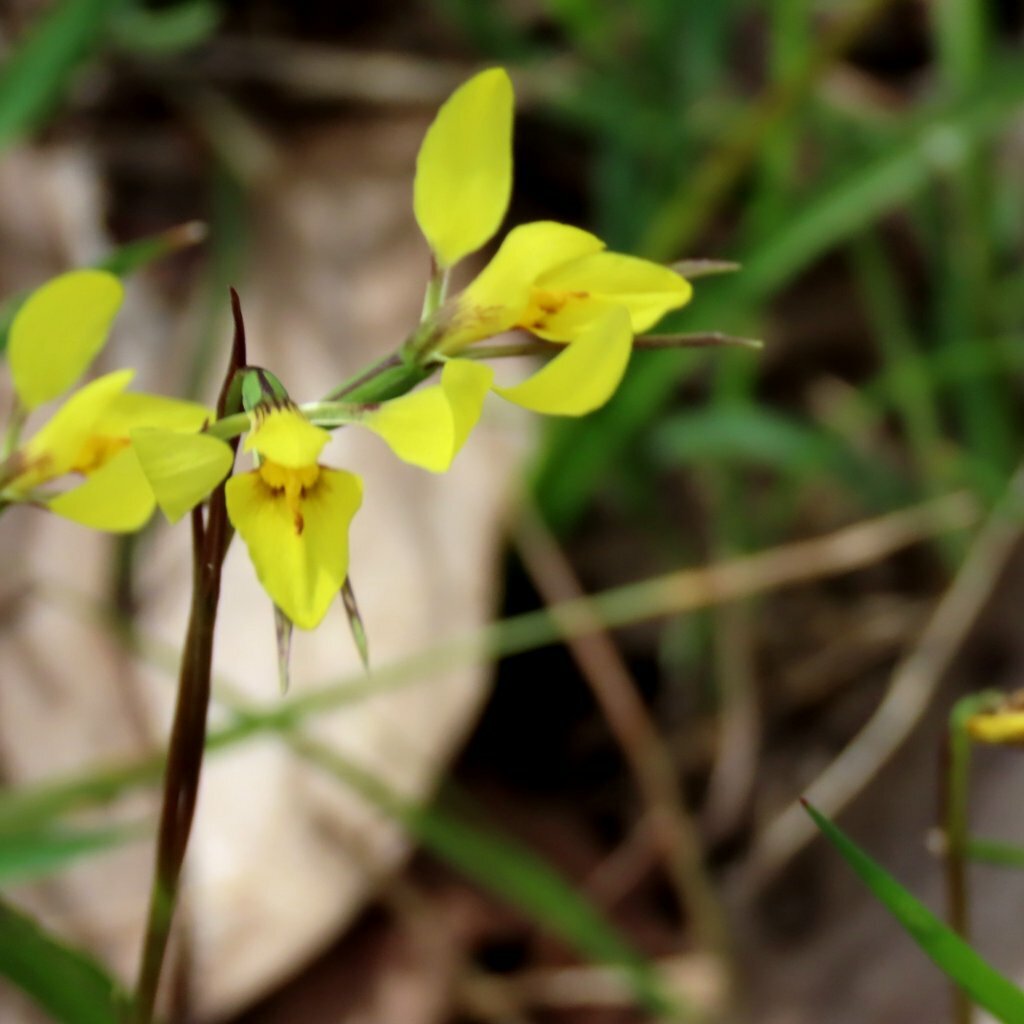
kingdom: Plantae
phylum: Tracheophyta
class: Liliopsida
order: Asparagales
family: Orchidaceae
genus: Diuris
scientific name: Diuris chryseopsis
